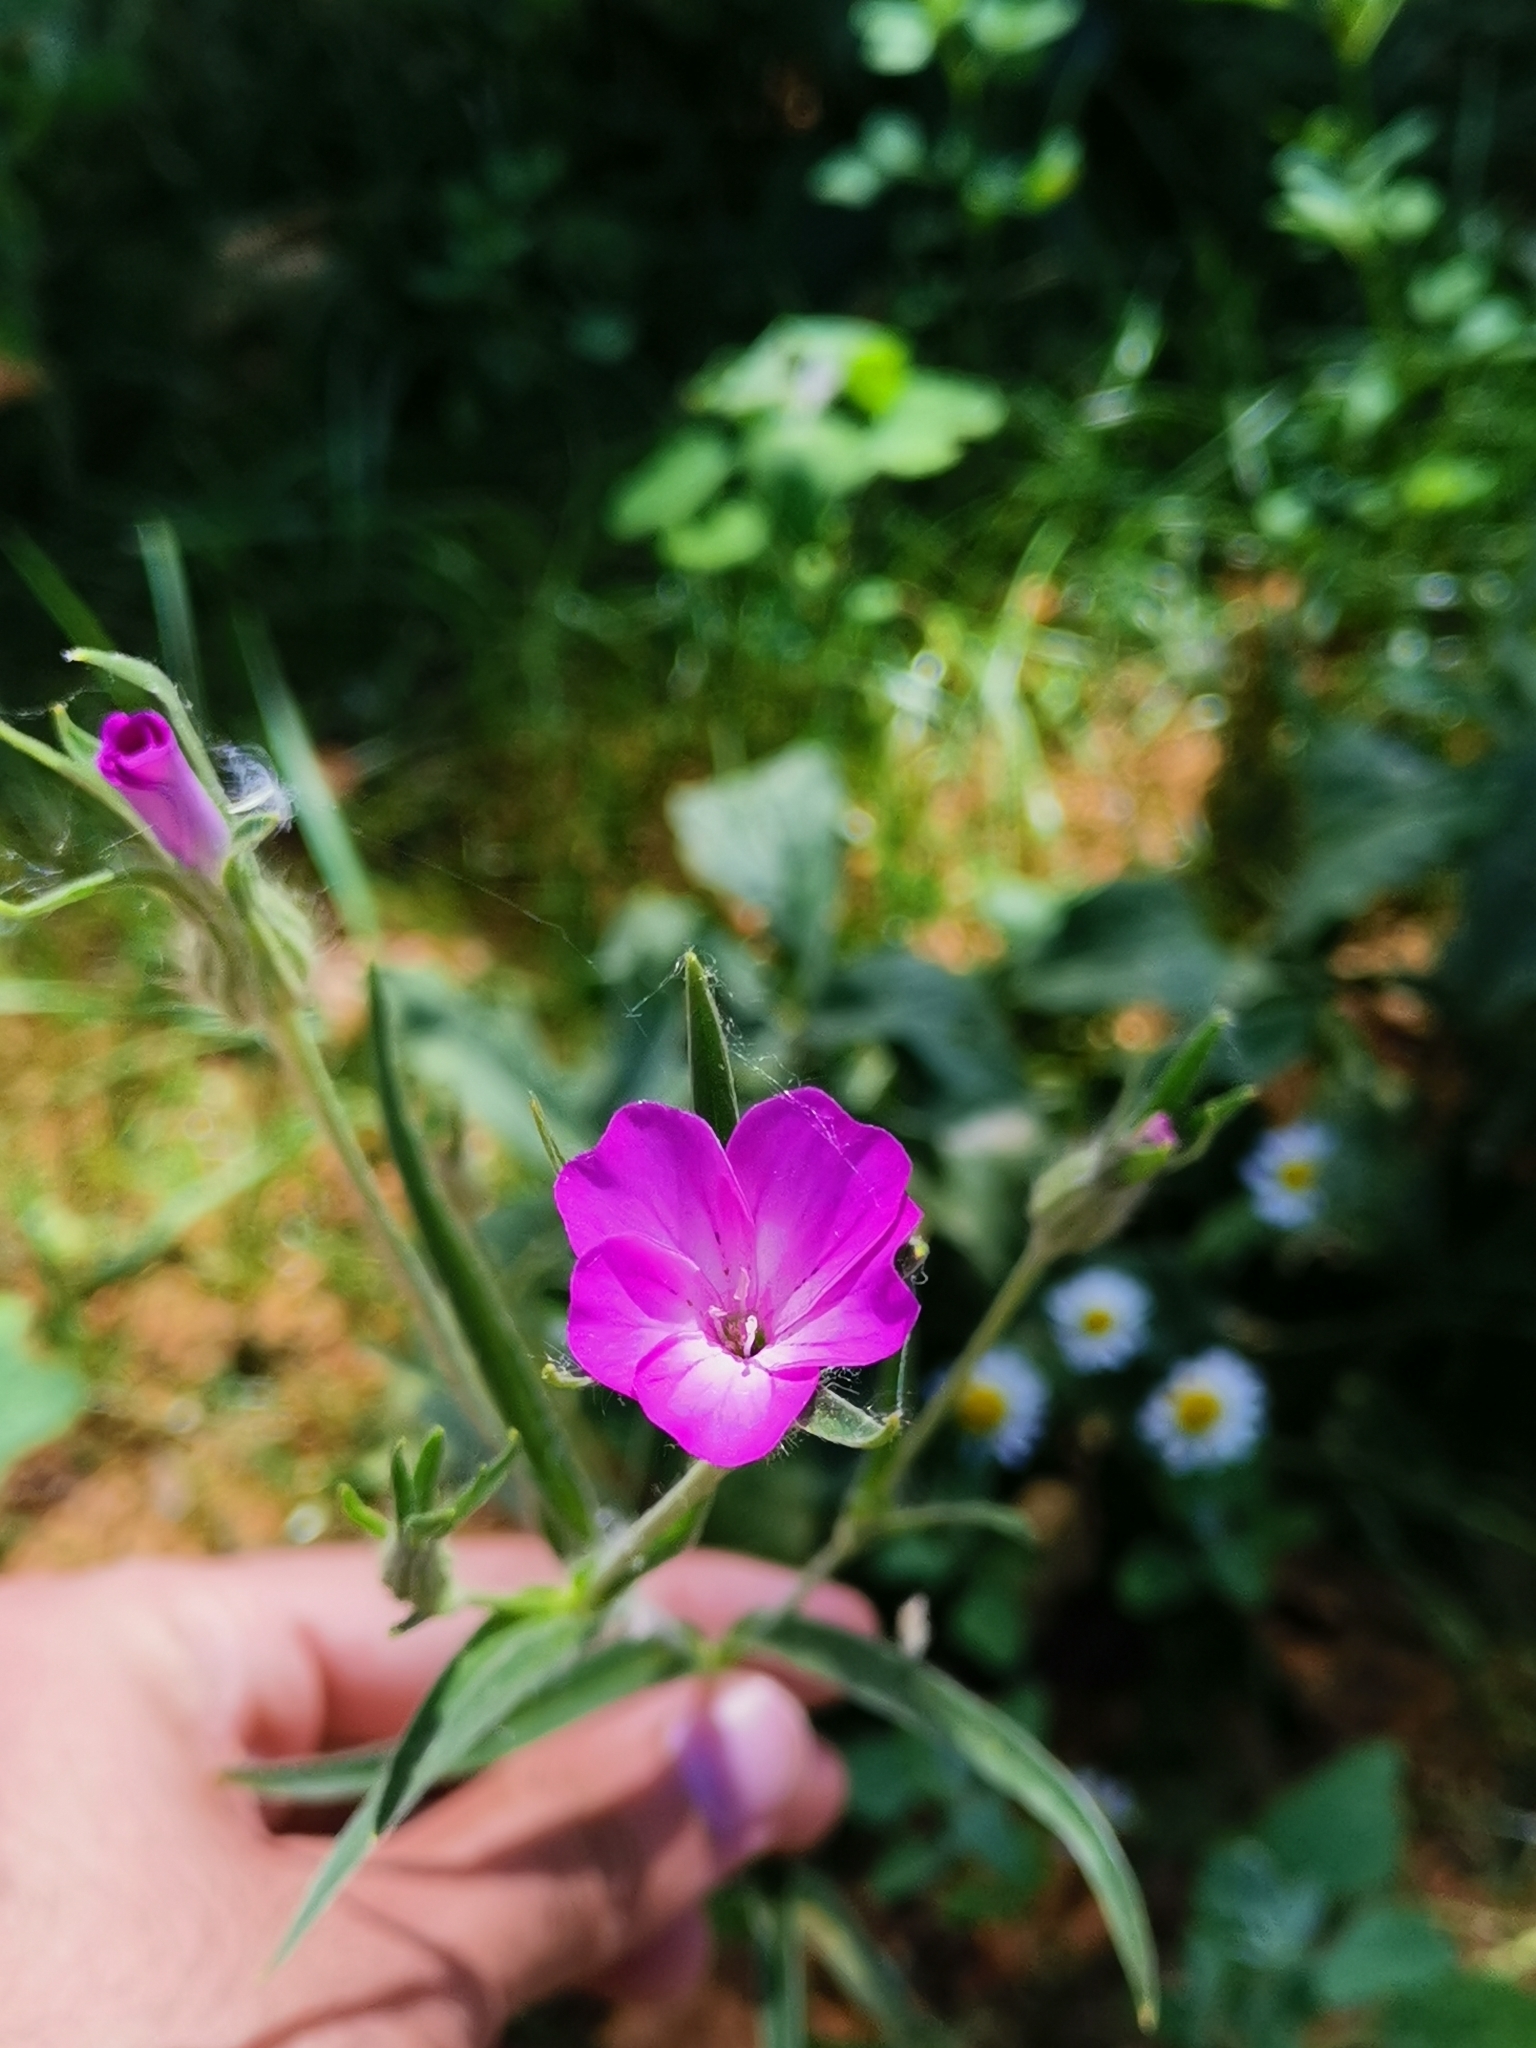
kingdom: Plantae
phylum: Tracheophyta
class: Magnoliopsida
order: Caryophyllales
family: Caryophyllaceae
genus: Agrostemma
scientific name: Agrostemma githago
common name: Common corncockle
